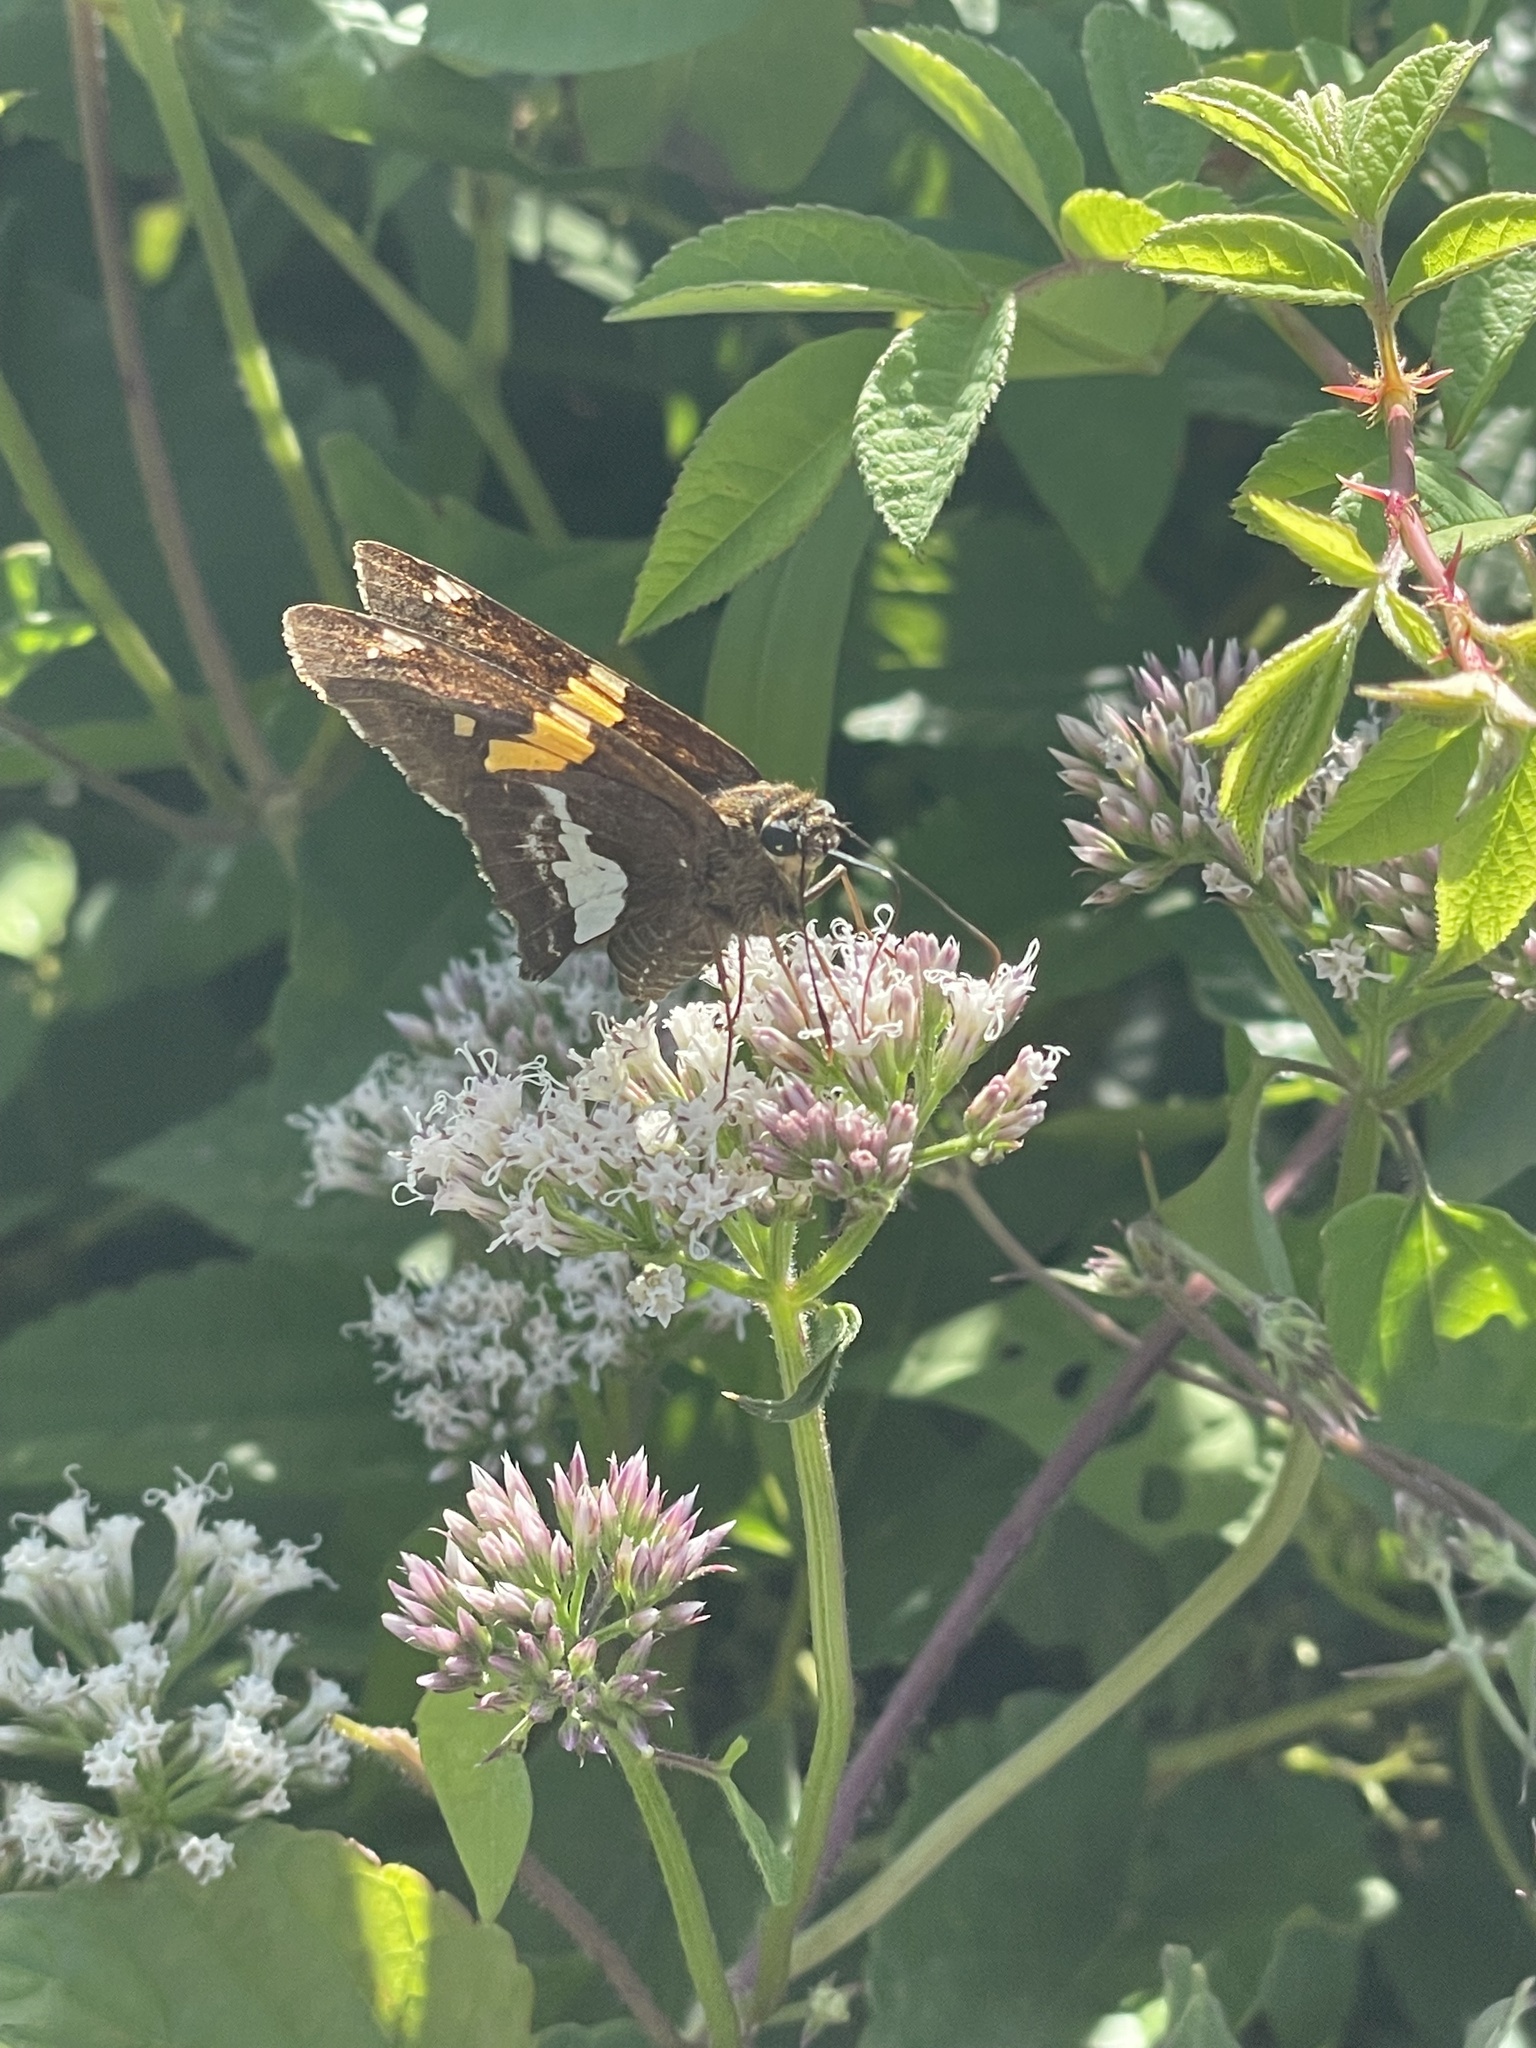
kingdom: Animalia
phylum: Arthropoda
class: Insecta
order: Lepidoptera
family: Hesperiidae
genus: Epargyreus
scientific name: Epargyreus clarus
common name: Silver-spotted skipper
